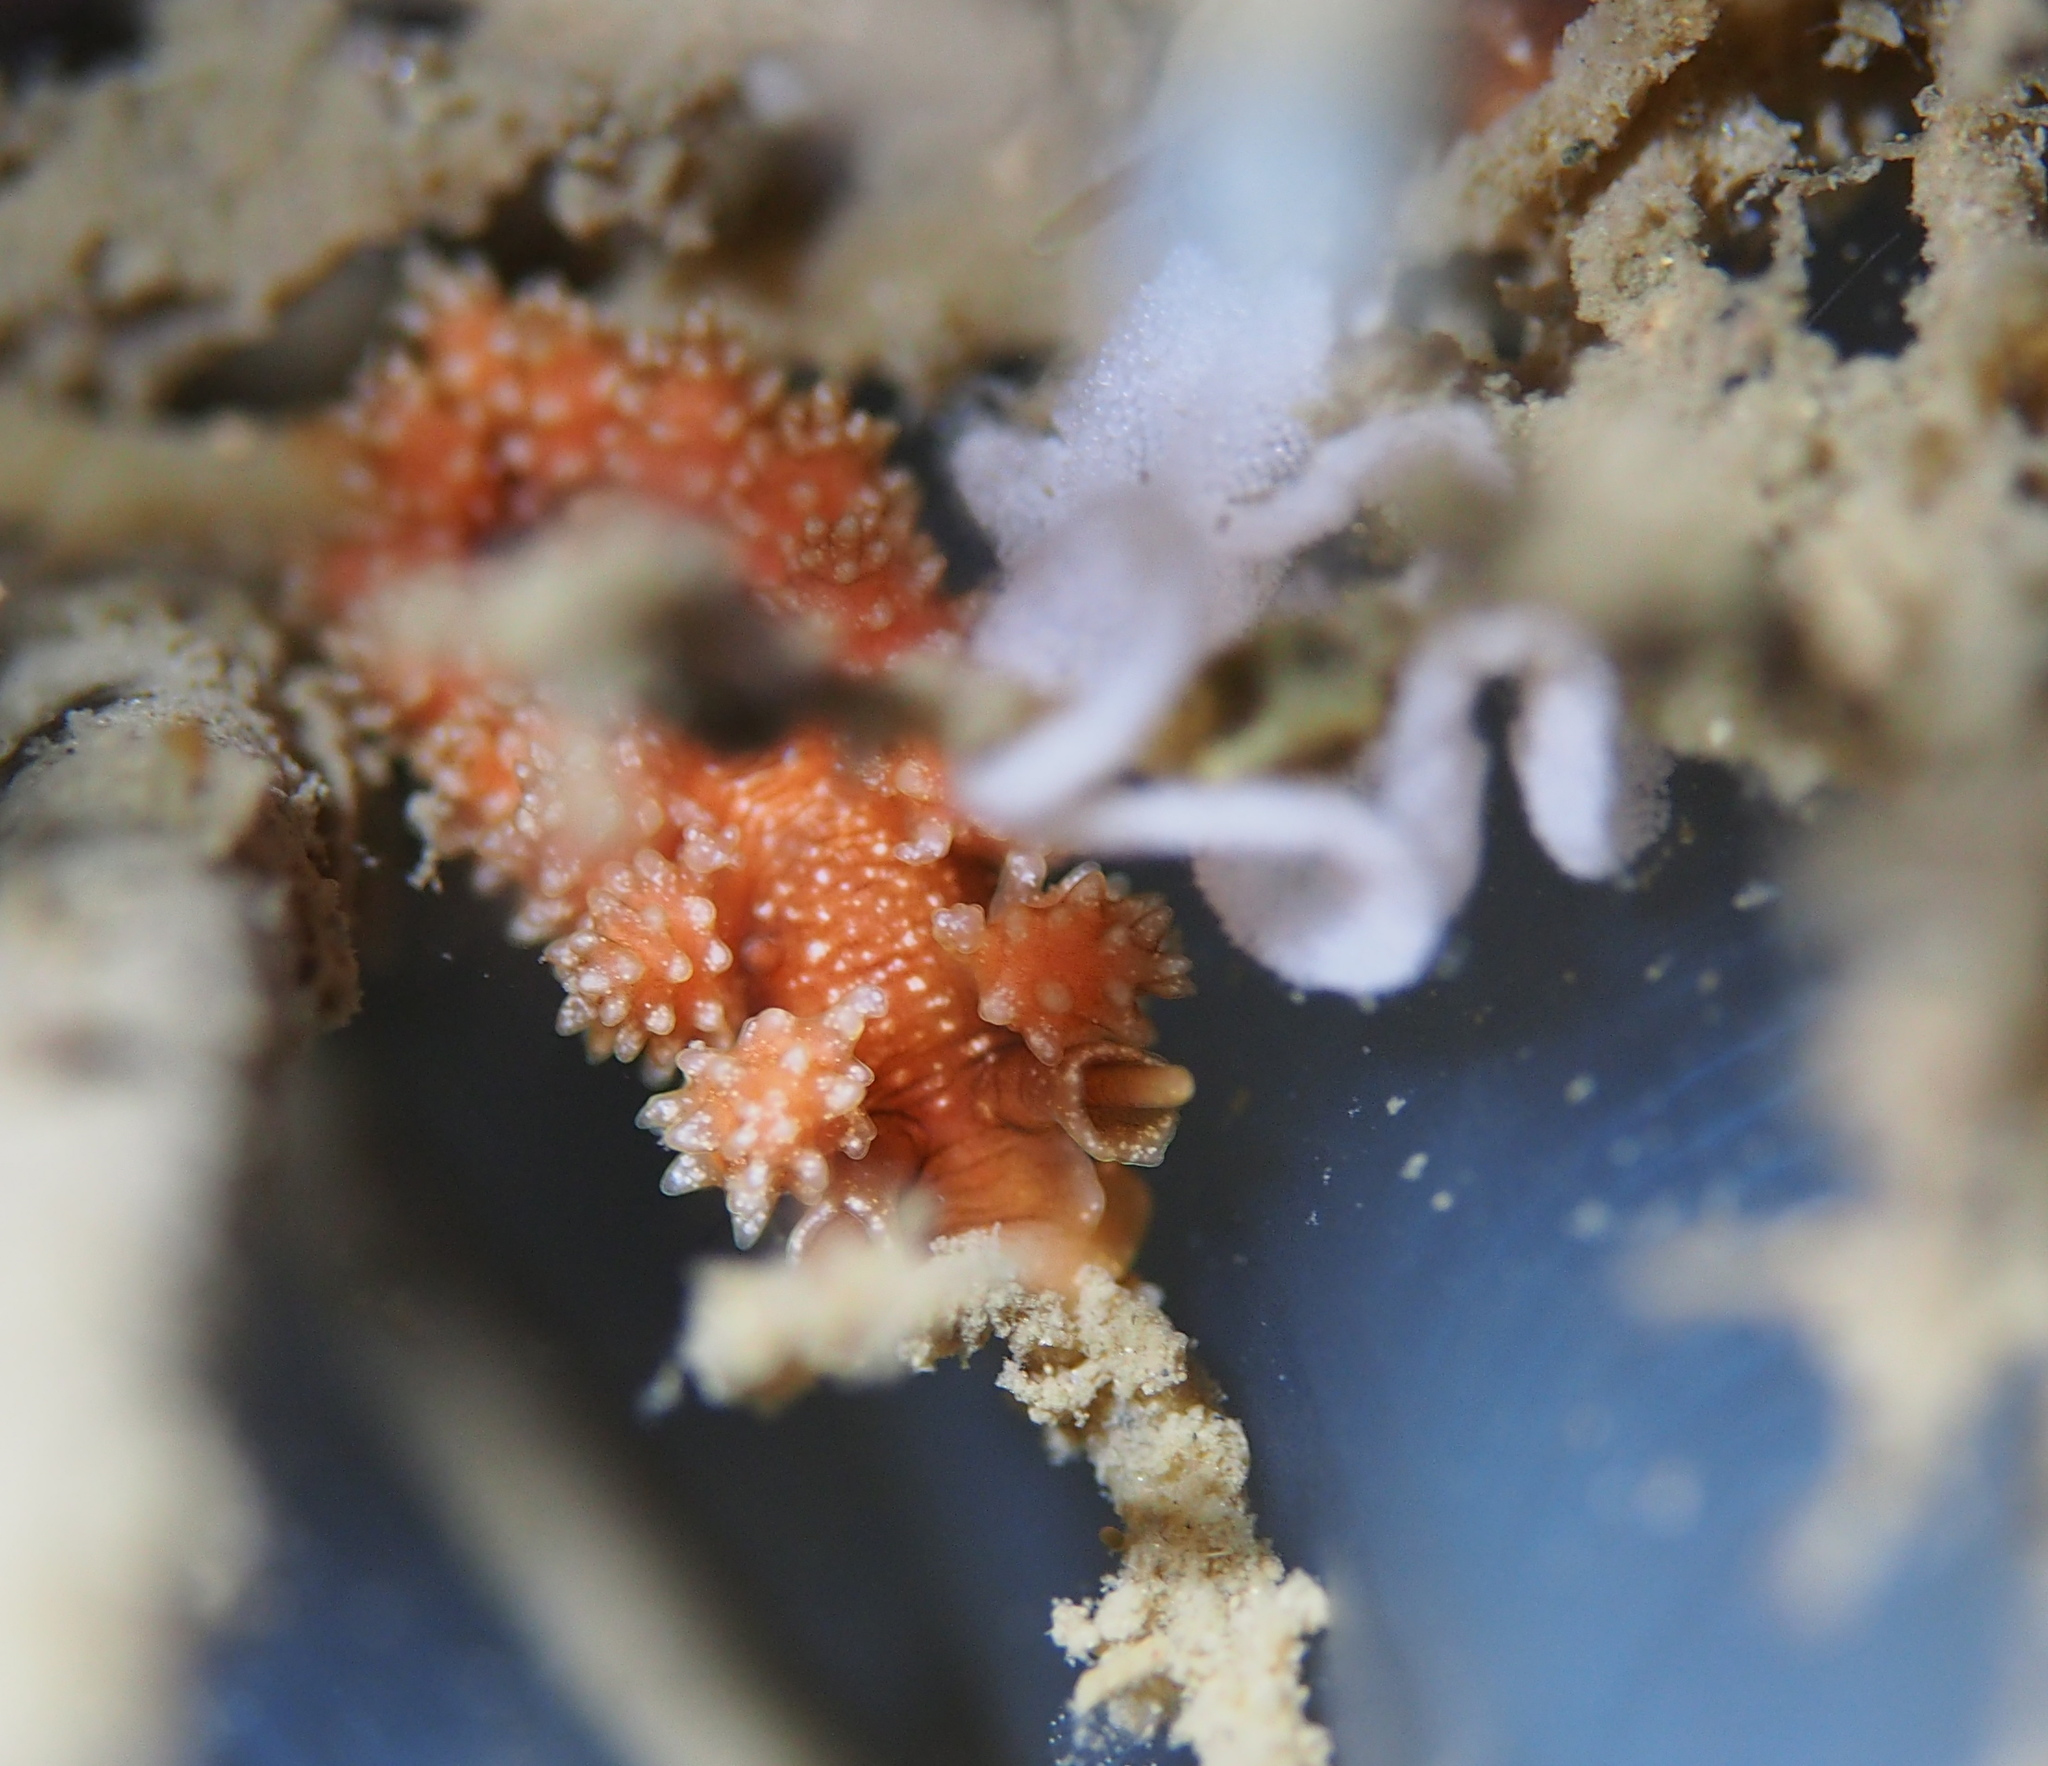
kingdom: Animalia
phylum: Mollusca
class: Gastropoda
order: Nudibranchia
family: Dotidae
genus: Doto
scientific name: Doto fragilis
